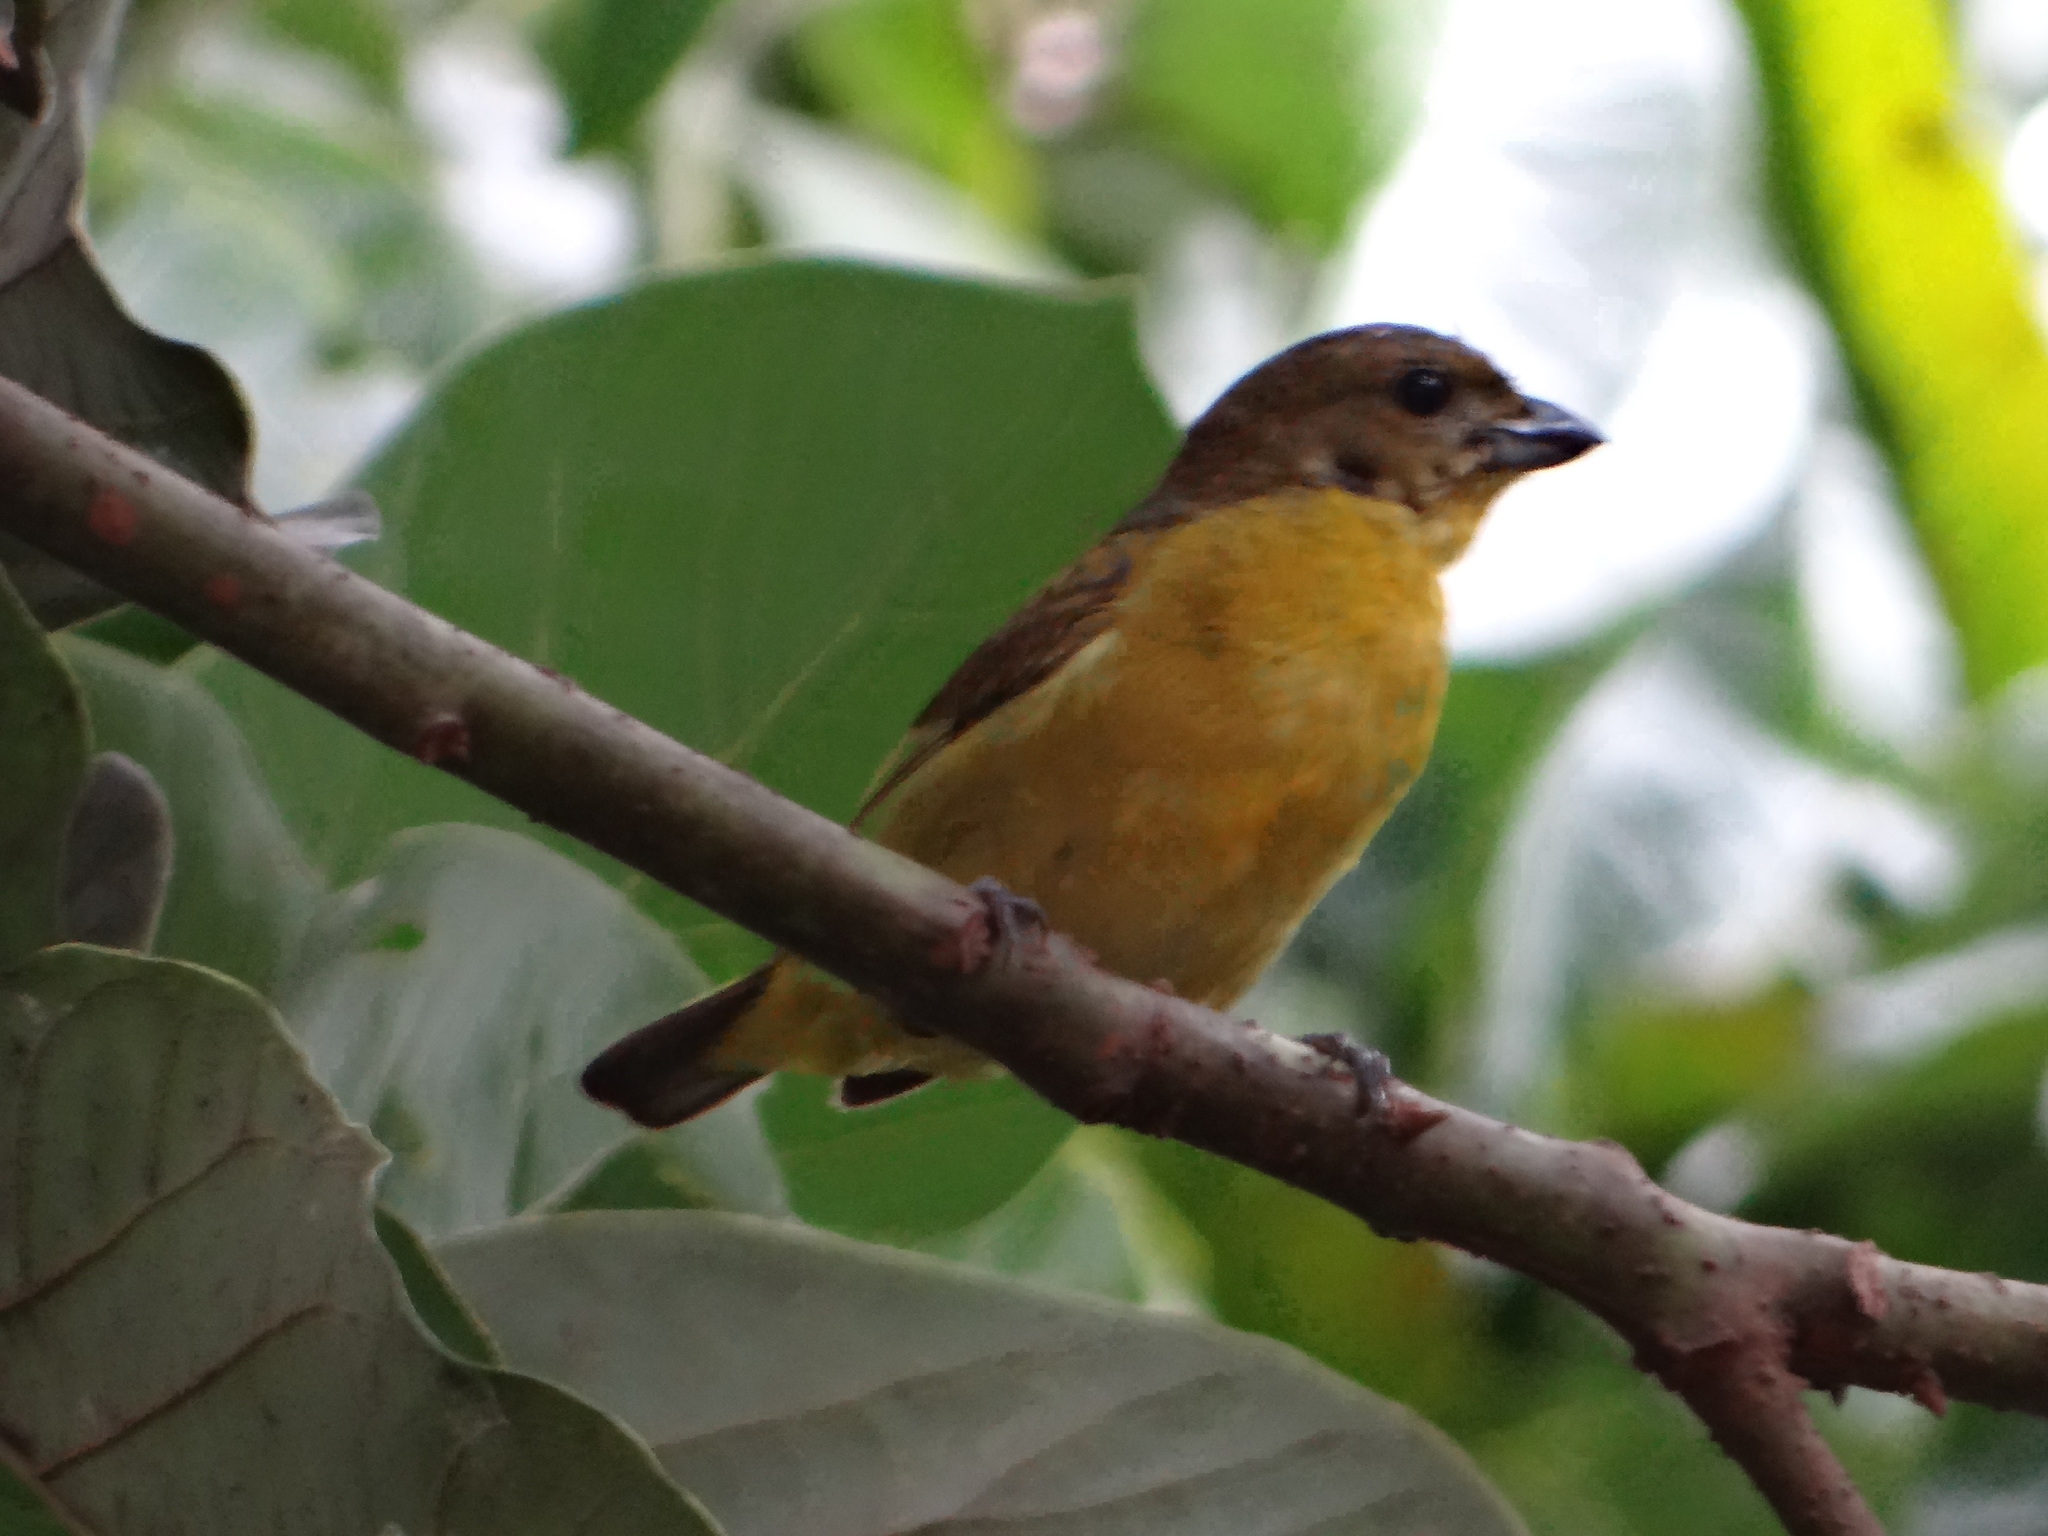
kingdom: Animalia
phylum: Chordata
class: Aves
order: Passeriformes
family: Fringillidae
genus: Euphonia
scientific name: Euphonia laniirostris
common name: Thick-billed euphonia
